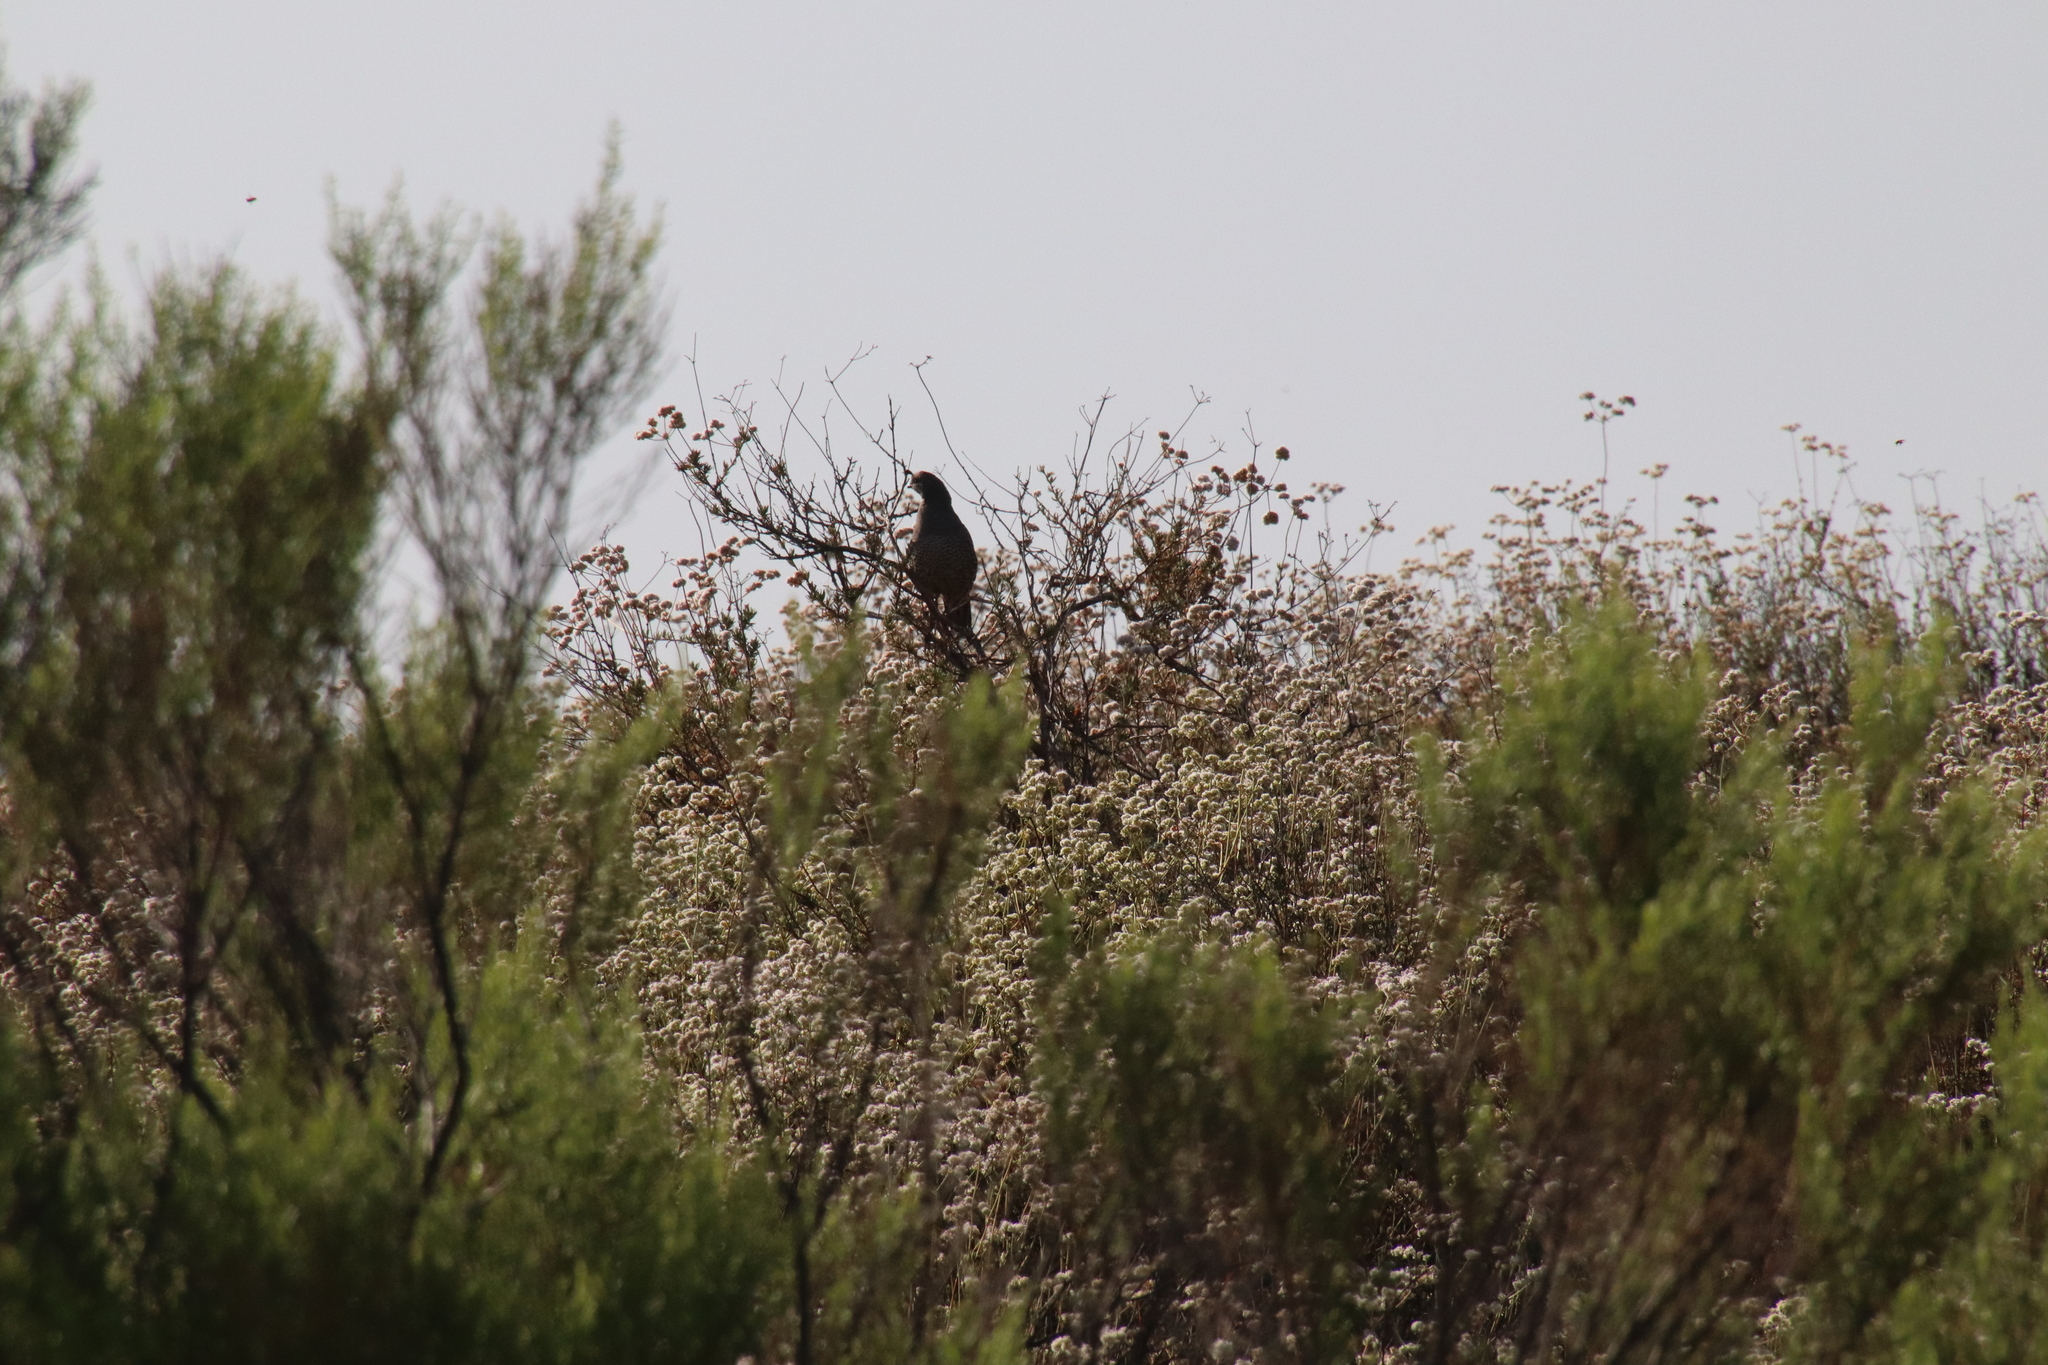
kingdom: Animalia
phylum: Chordata
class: Aves
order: Galliformes
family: Odontophoridae
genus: Callipepla
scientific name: Callipepla californica
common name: California quail
